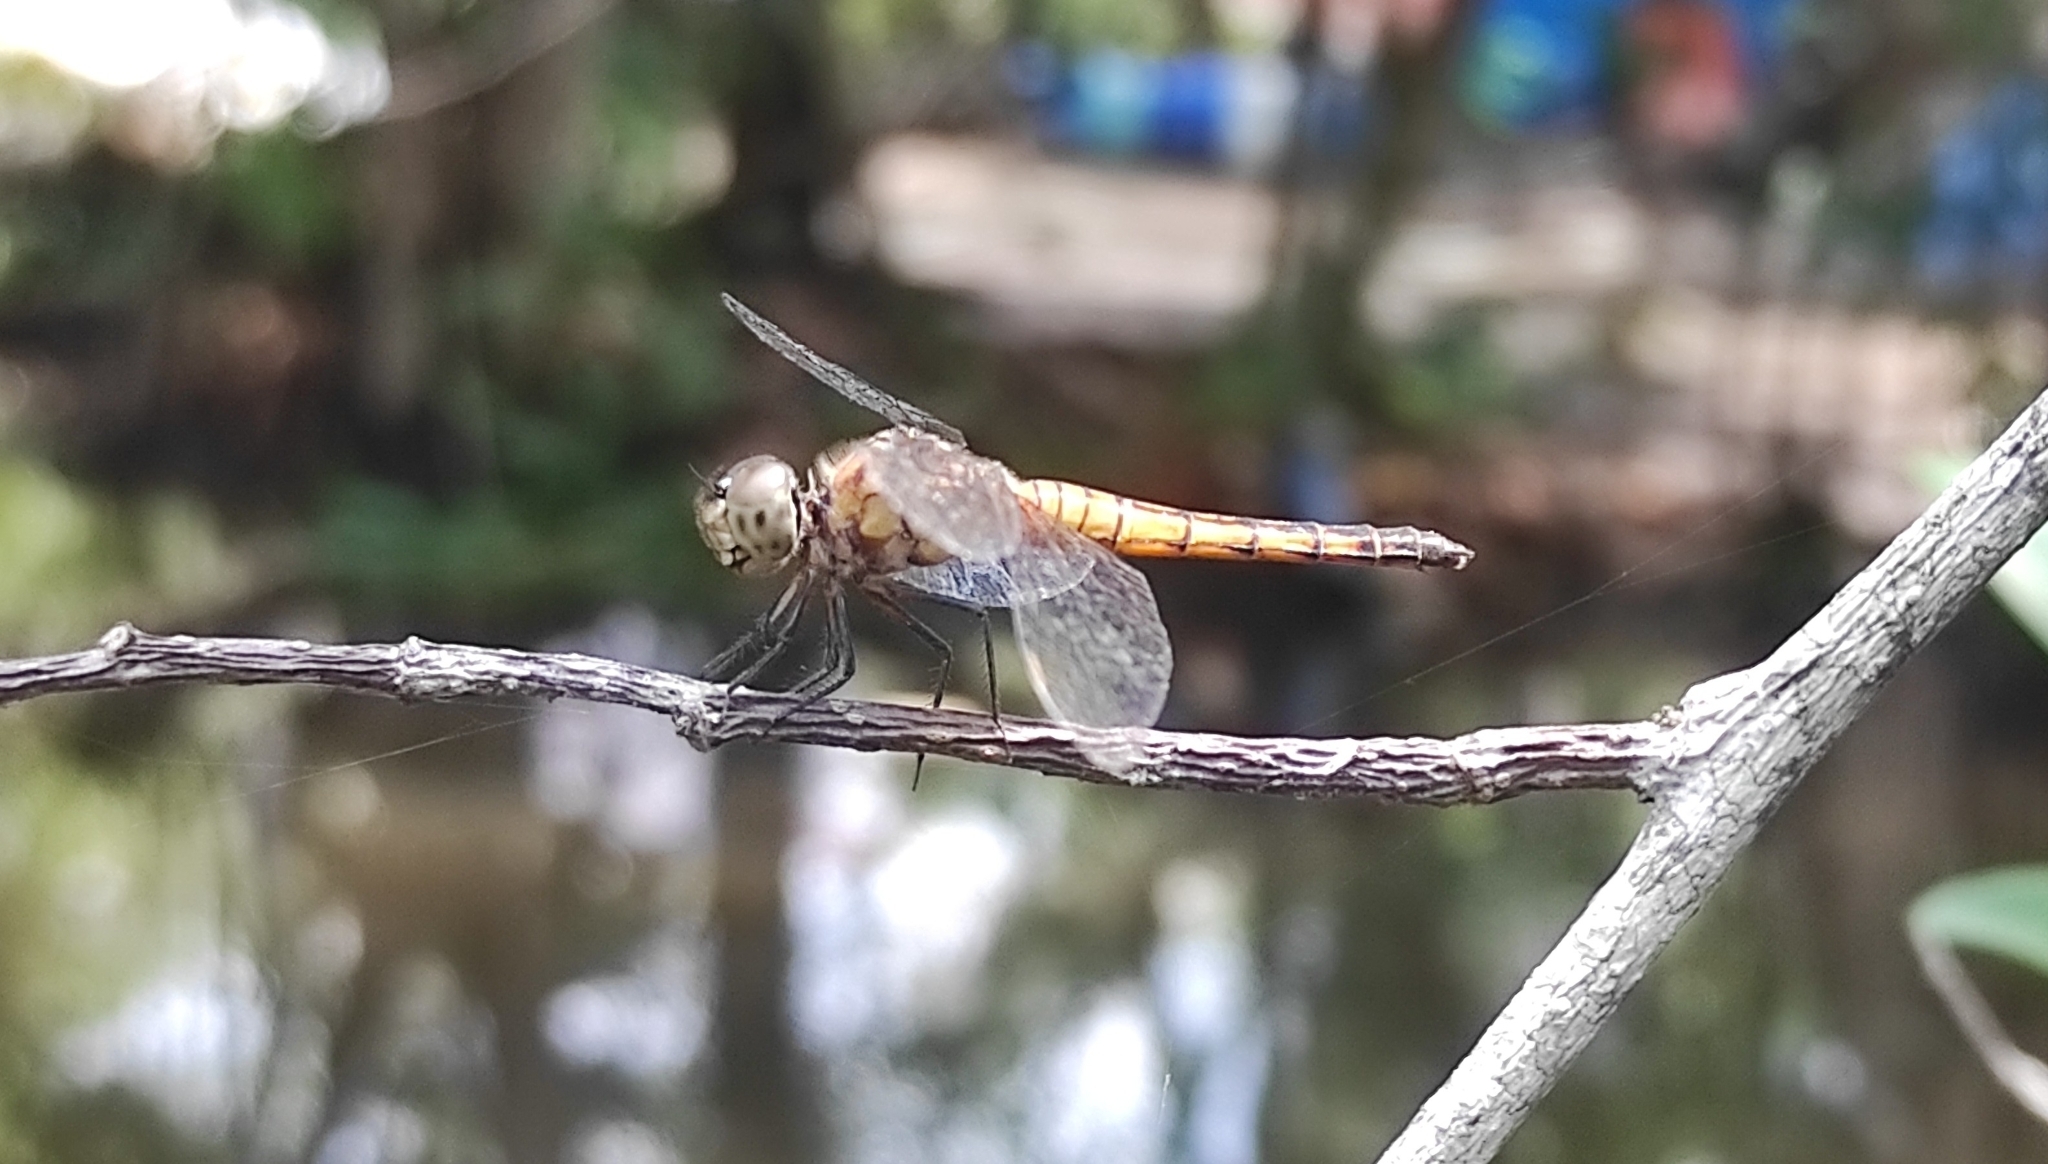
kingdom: Animalia
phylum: Arthropoda
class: Insecta
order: Odonata
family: Libellulidae
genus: Brachydiplax
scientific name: Brachydiplax chalybea
